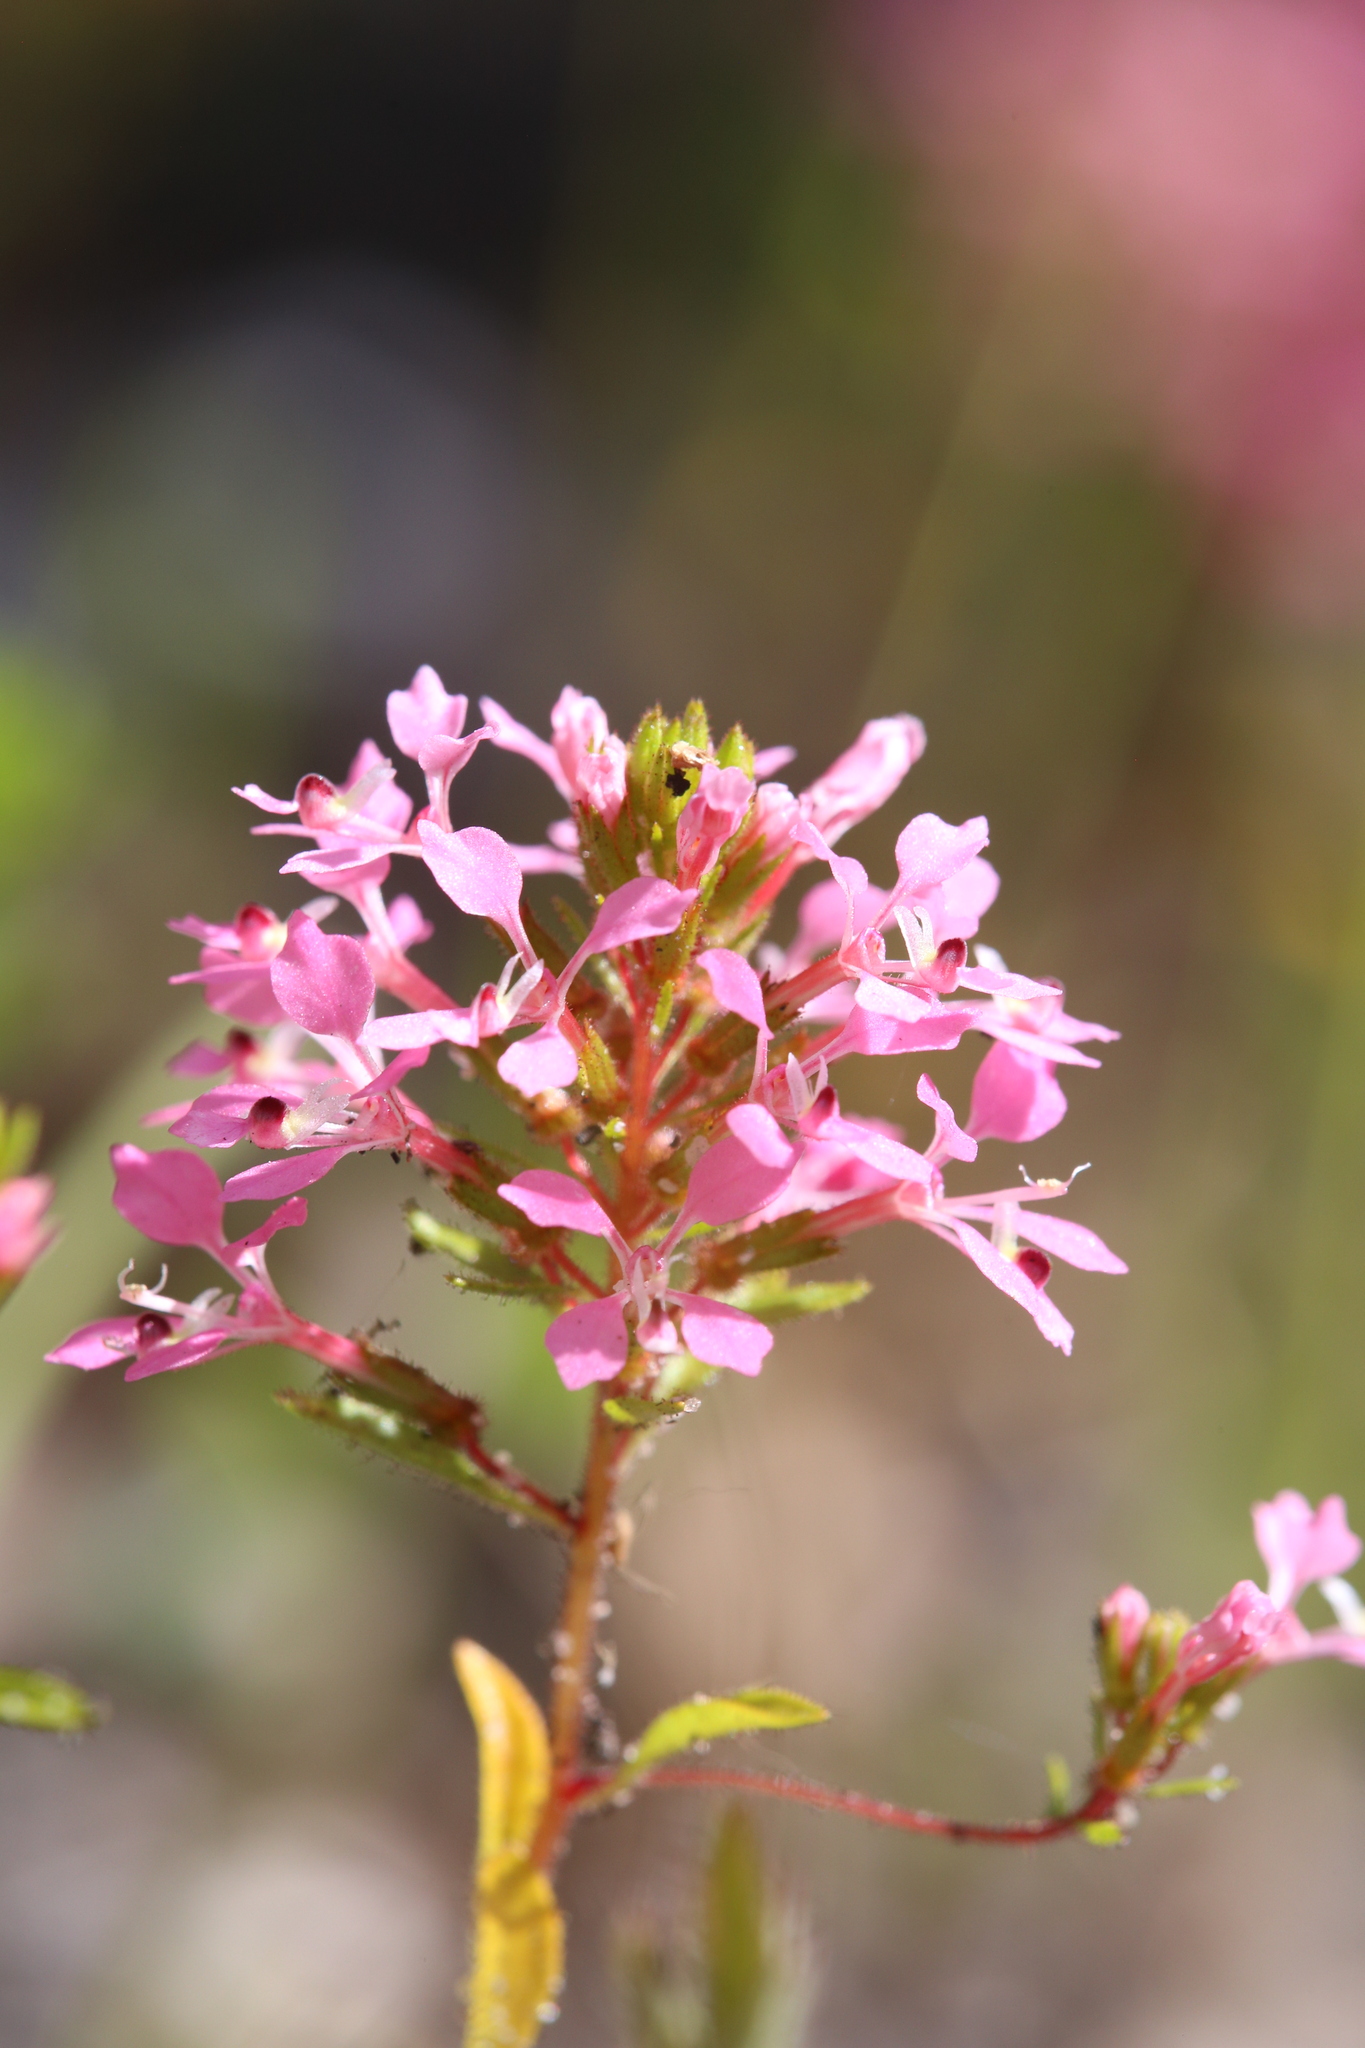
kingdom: Plantae
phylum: Tracheophyta
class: Magnoliopsida
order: Asterales
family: Stylidiaceae
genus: Levenhookia
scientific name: Levenhookia aestiva
